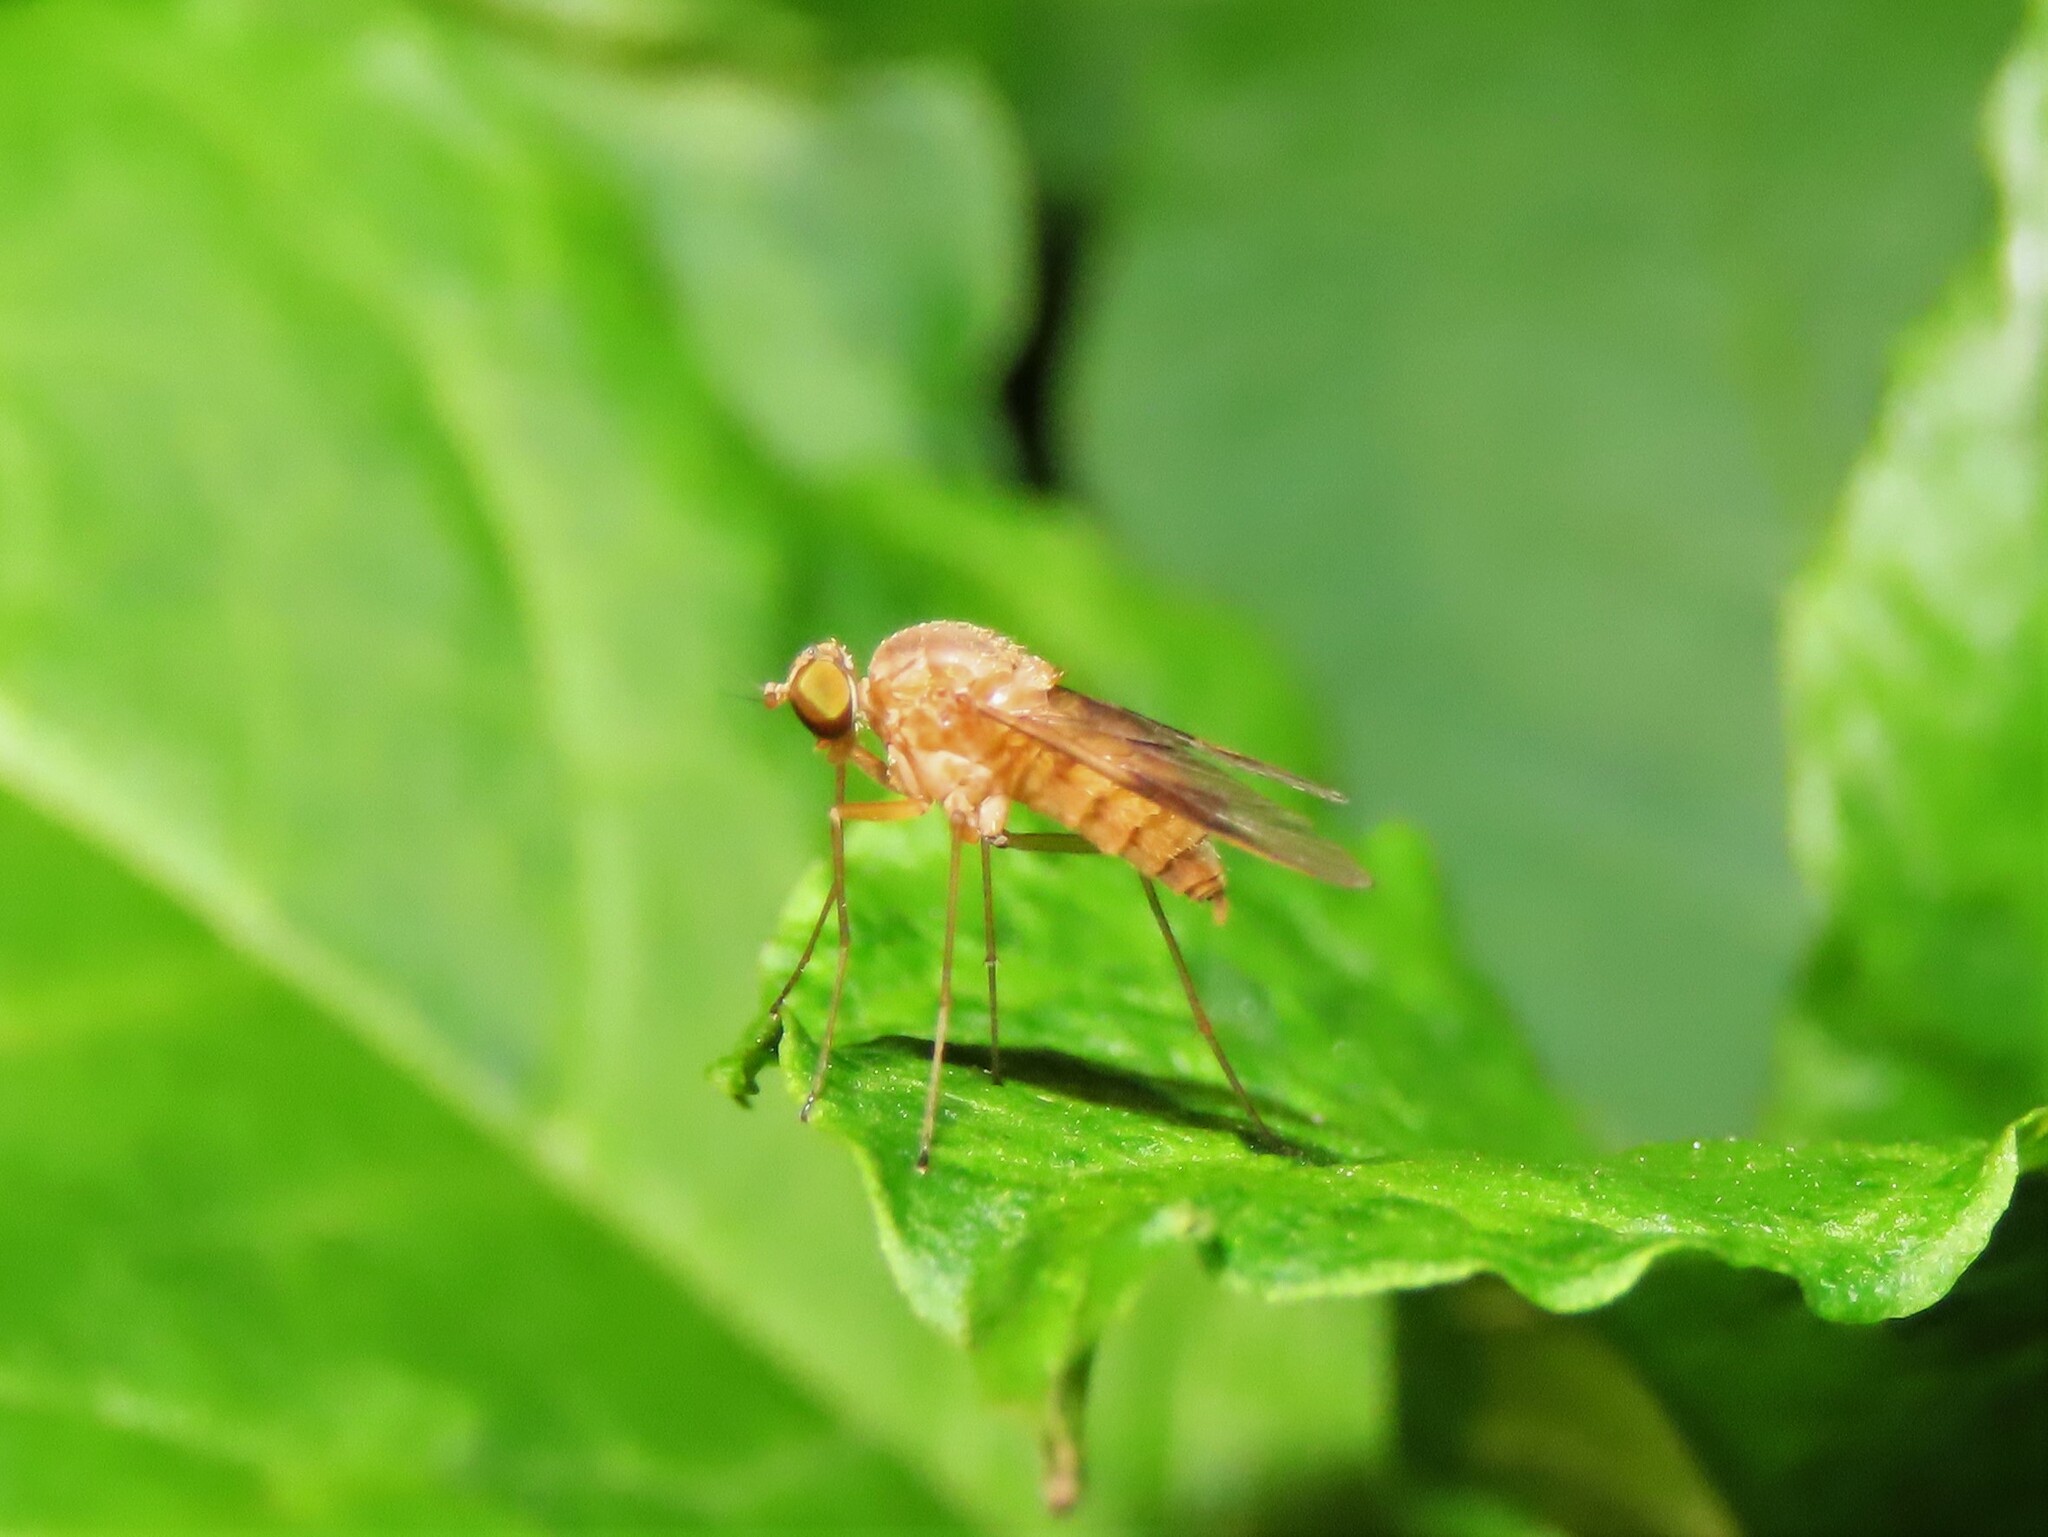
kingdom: Animalia
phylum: Arthropoda
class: Insecta
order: Diptera
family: Rhagionidae
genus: Chrysopilus
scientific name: Chrysopilus quadratus
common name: Quadrate snipe fly
